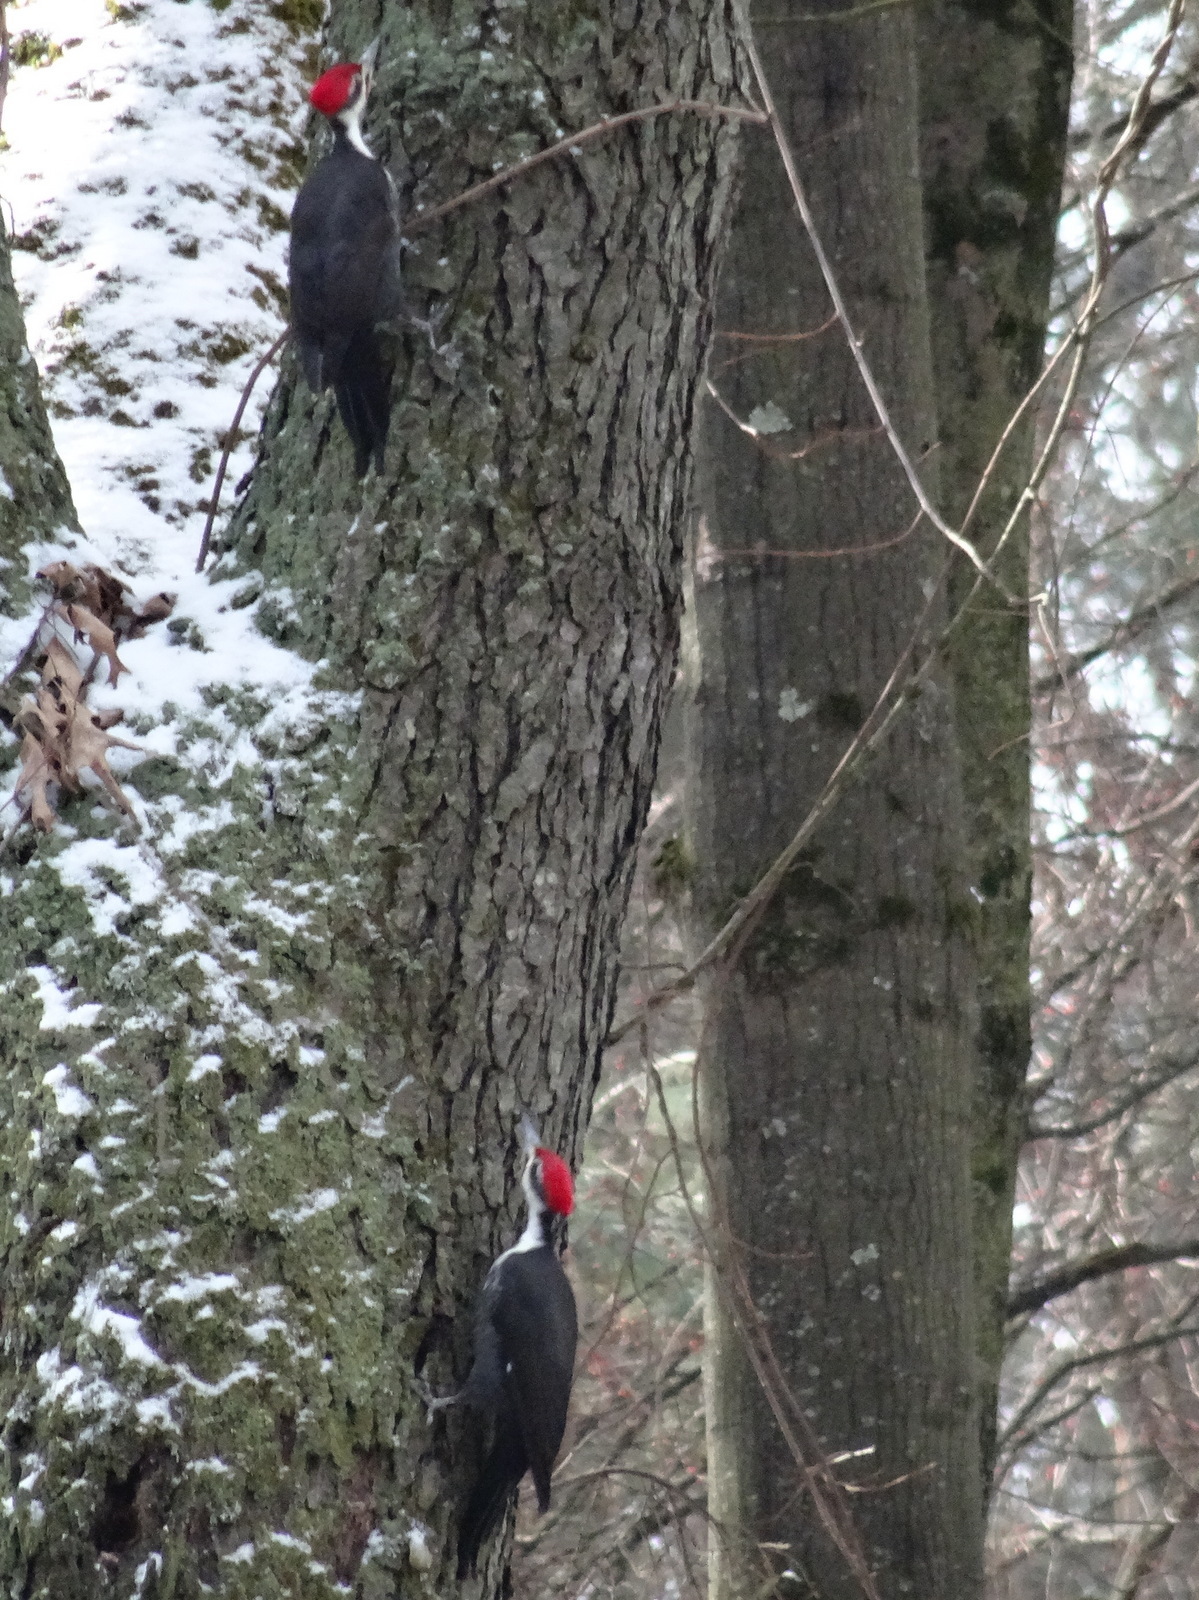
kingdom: Animalia
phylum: Chordata
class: Aves
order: Piciformes
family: Picidae
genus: Dryocopus
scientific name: Dryocopus pileatus
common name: Pileated woodpecker
